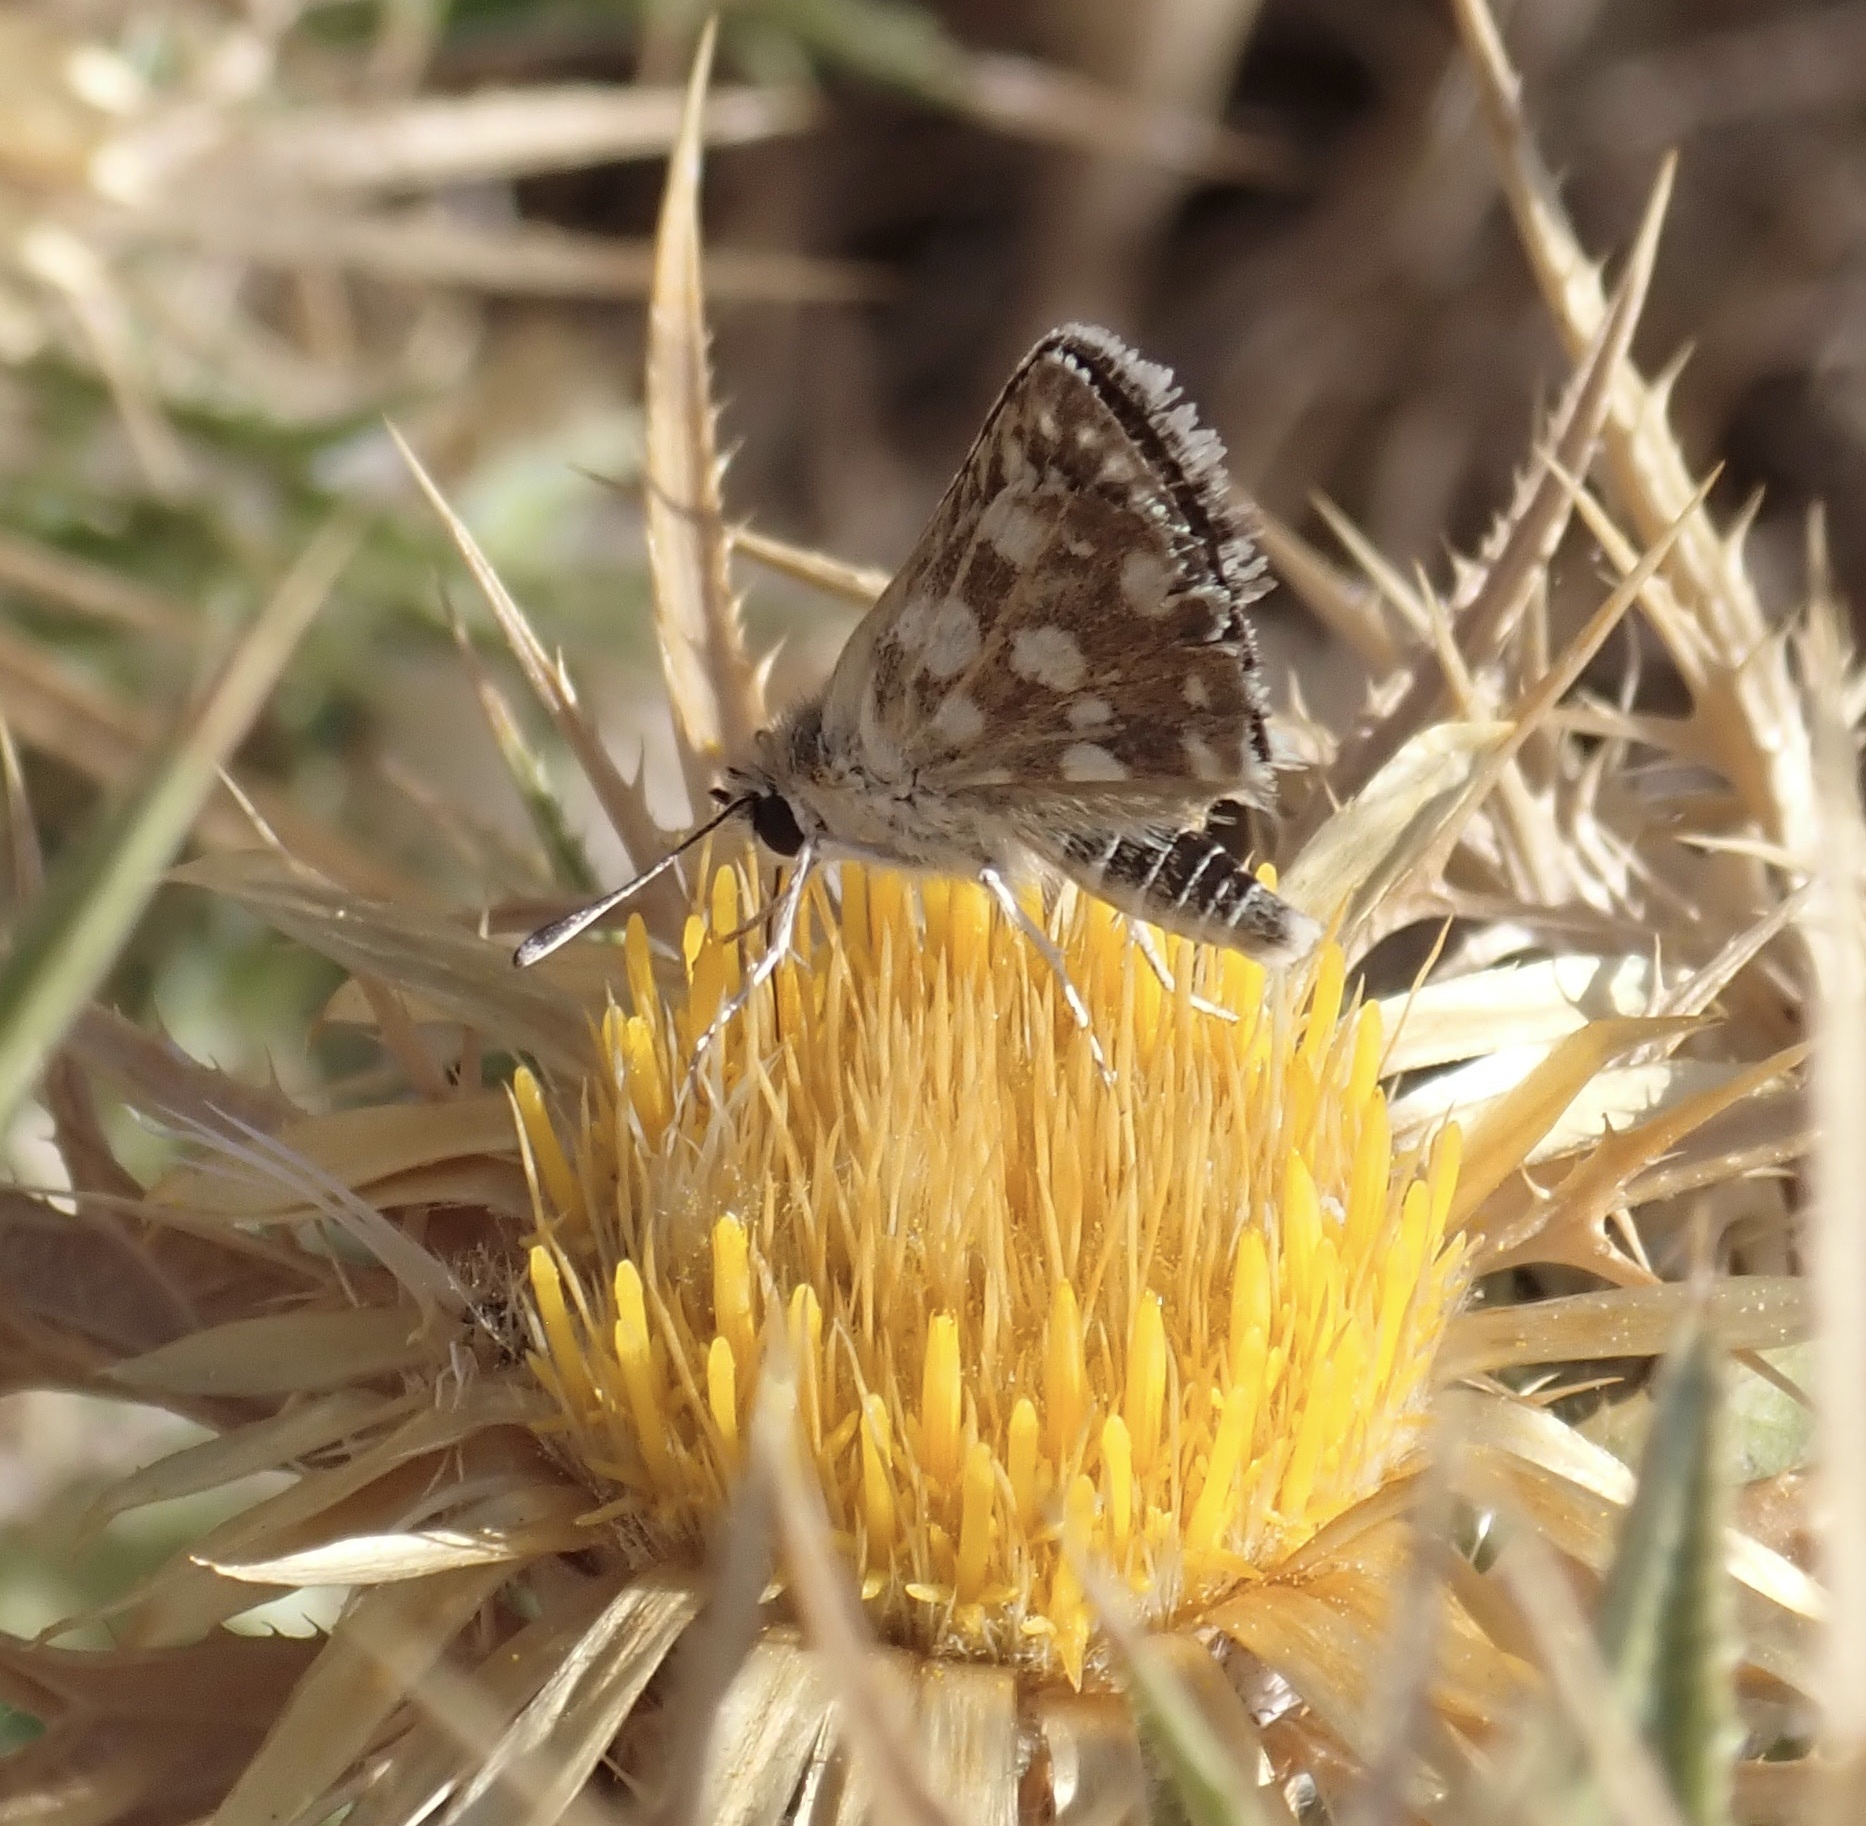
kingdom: Animalia
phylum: Arthropoda
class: Insecta
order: Lepidoptera
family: Hesperiidae
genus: Spialia
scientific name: Spialia sertorius
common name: Red underwing skipper
